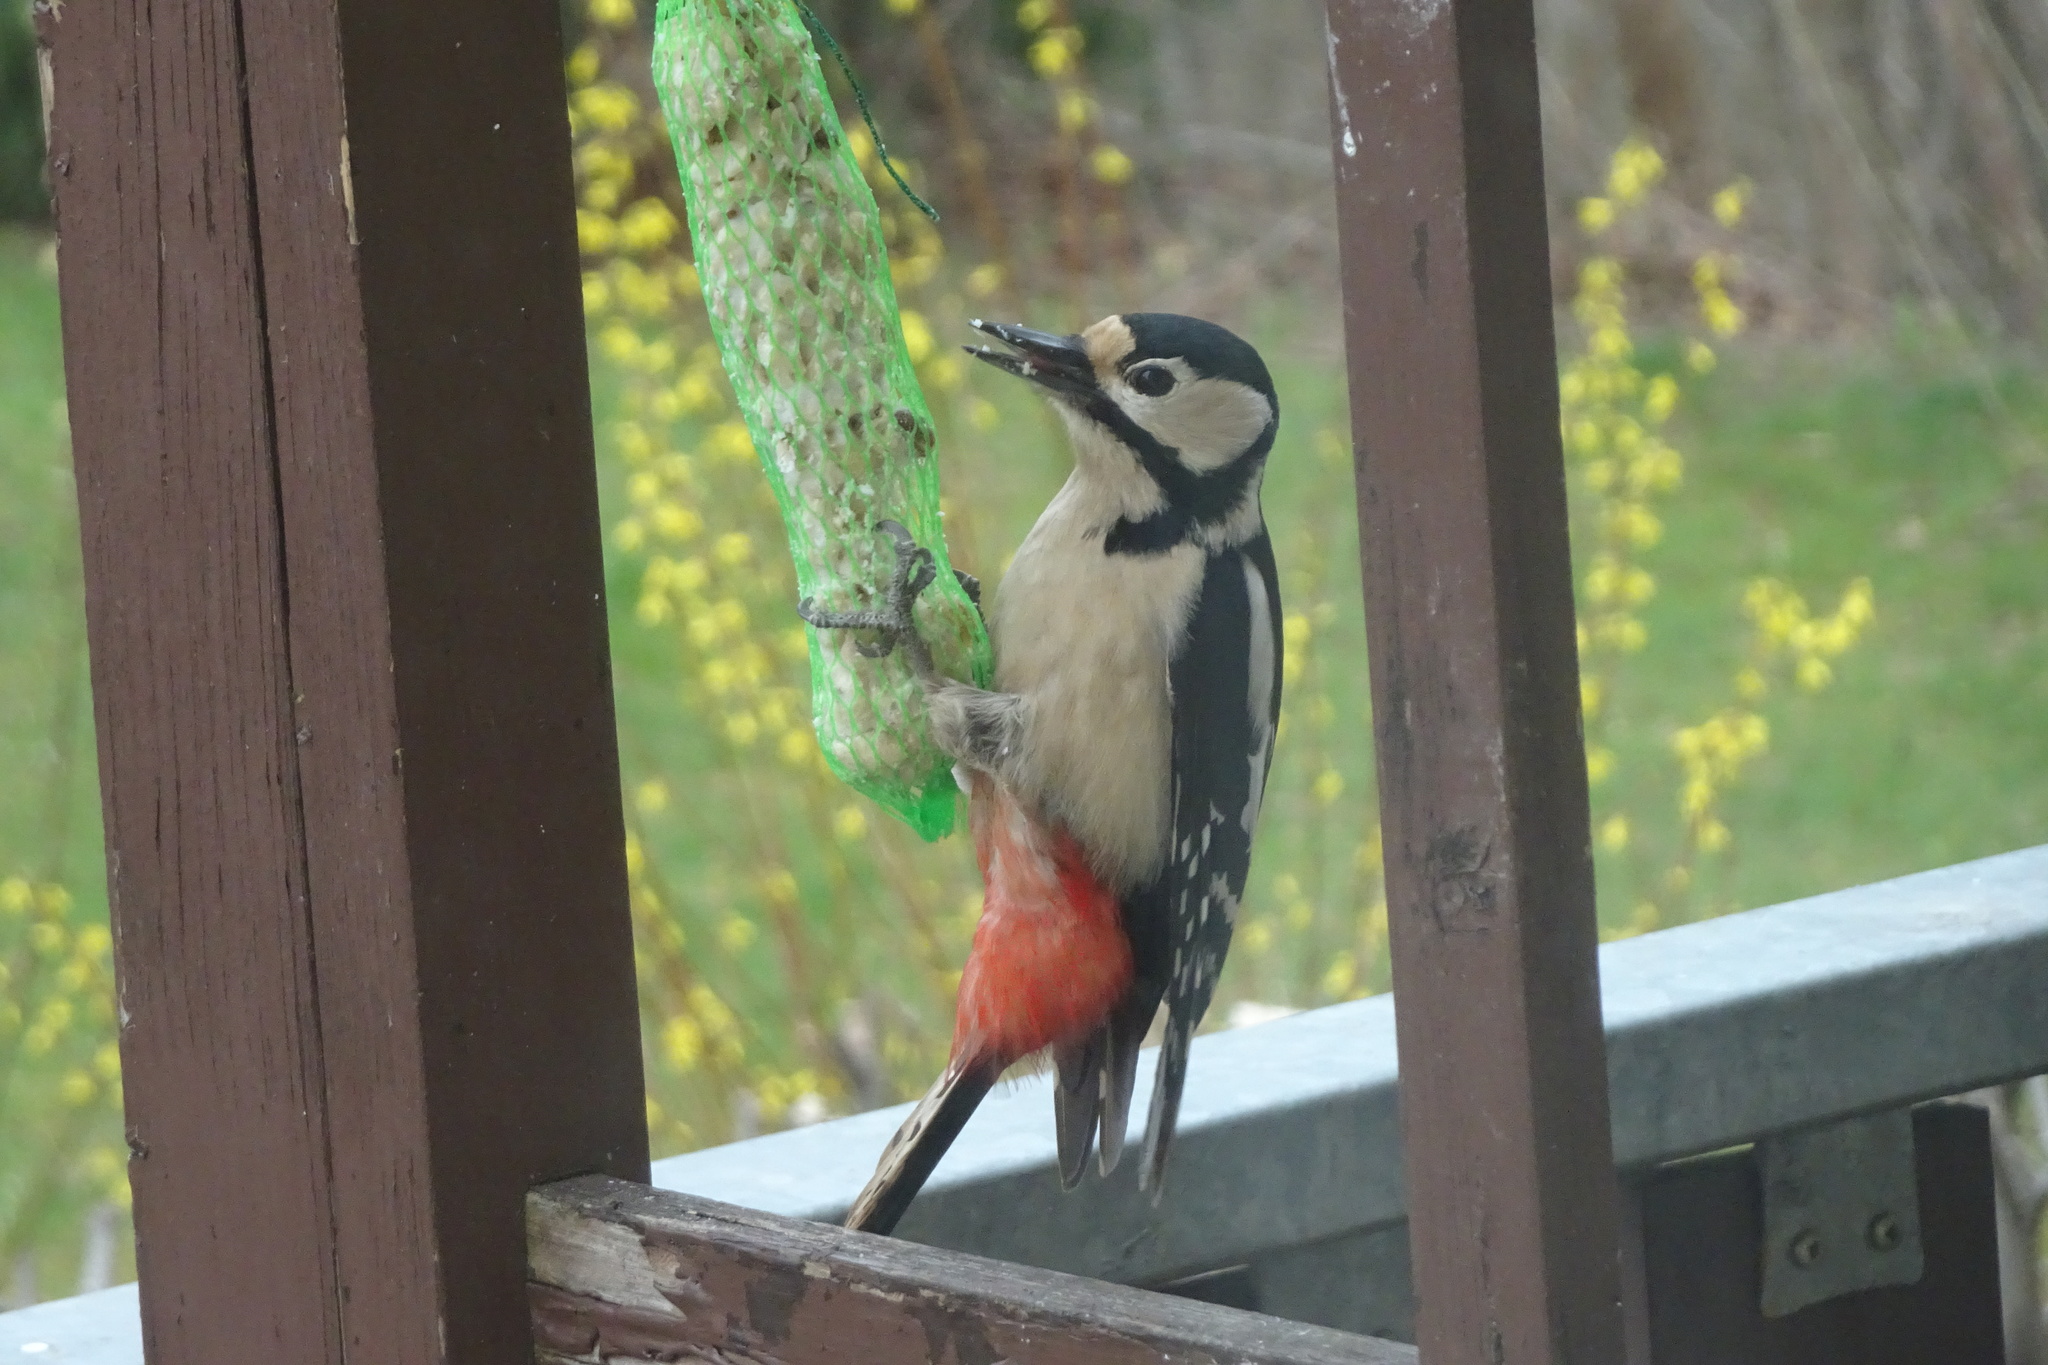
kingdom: Animalia
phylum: Chordata
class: Aves
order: Piciformes
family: Picidae
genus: Dendrocopos
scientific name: Dendrocopos major
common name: Great spotted woodpecker
